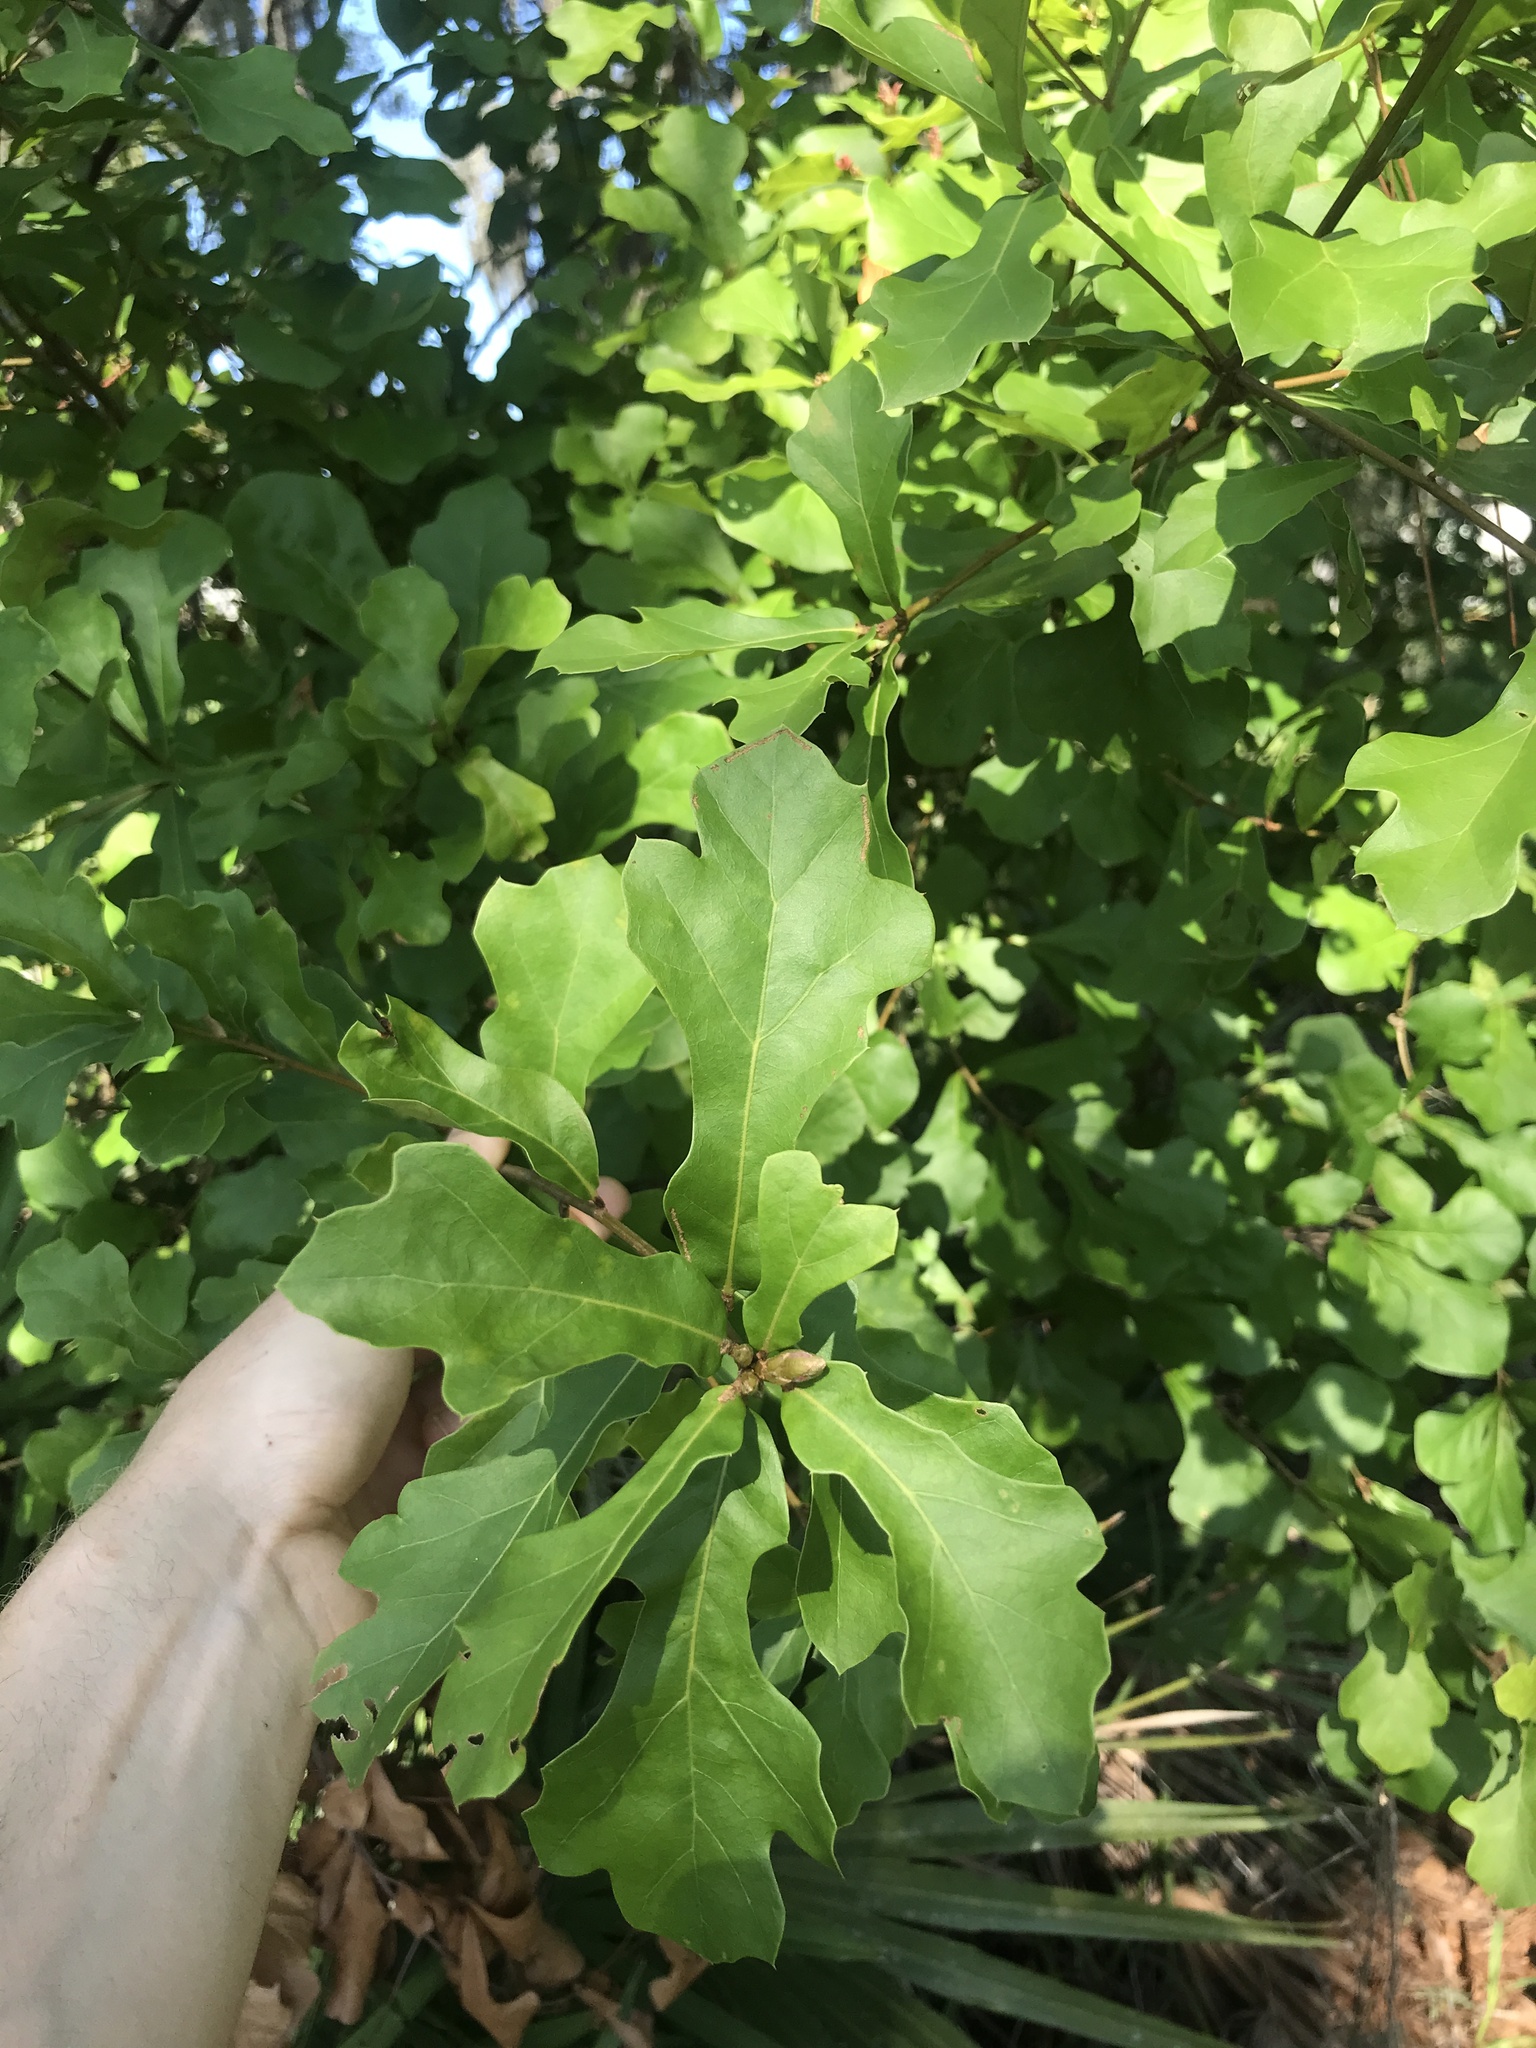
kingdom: Plantae
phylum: Tracheophyta
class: Magnoliopsida
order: Fagales
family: Fagaceae
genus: Quercus
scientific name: Quercus nigra
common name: Water oak
